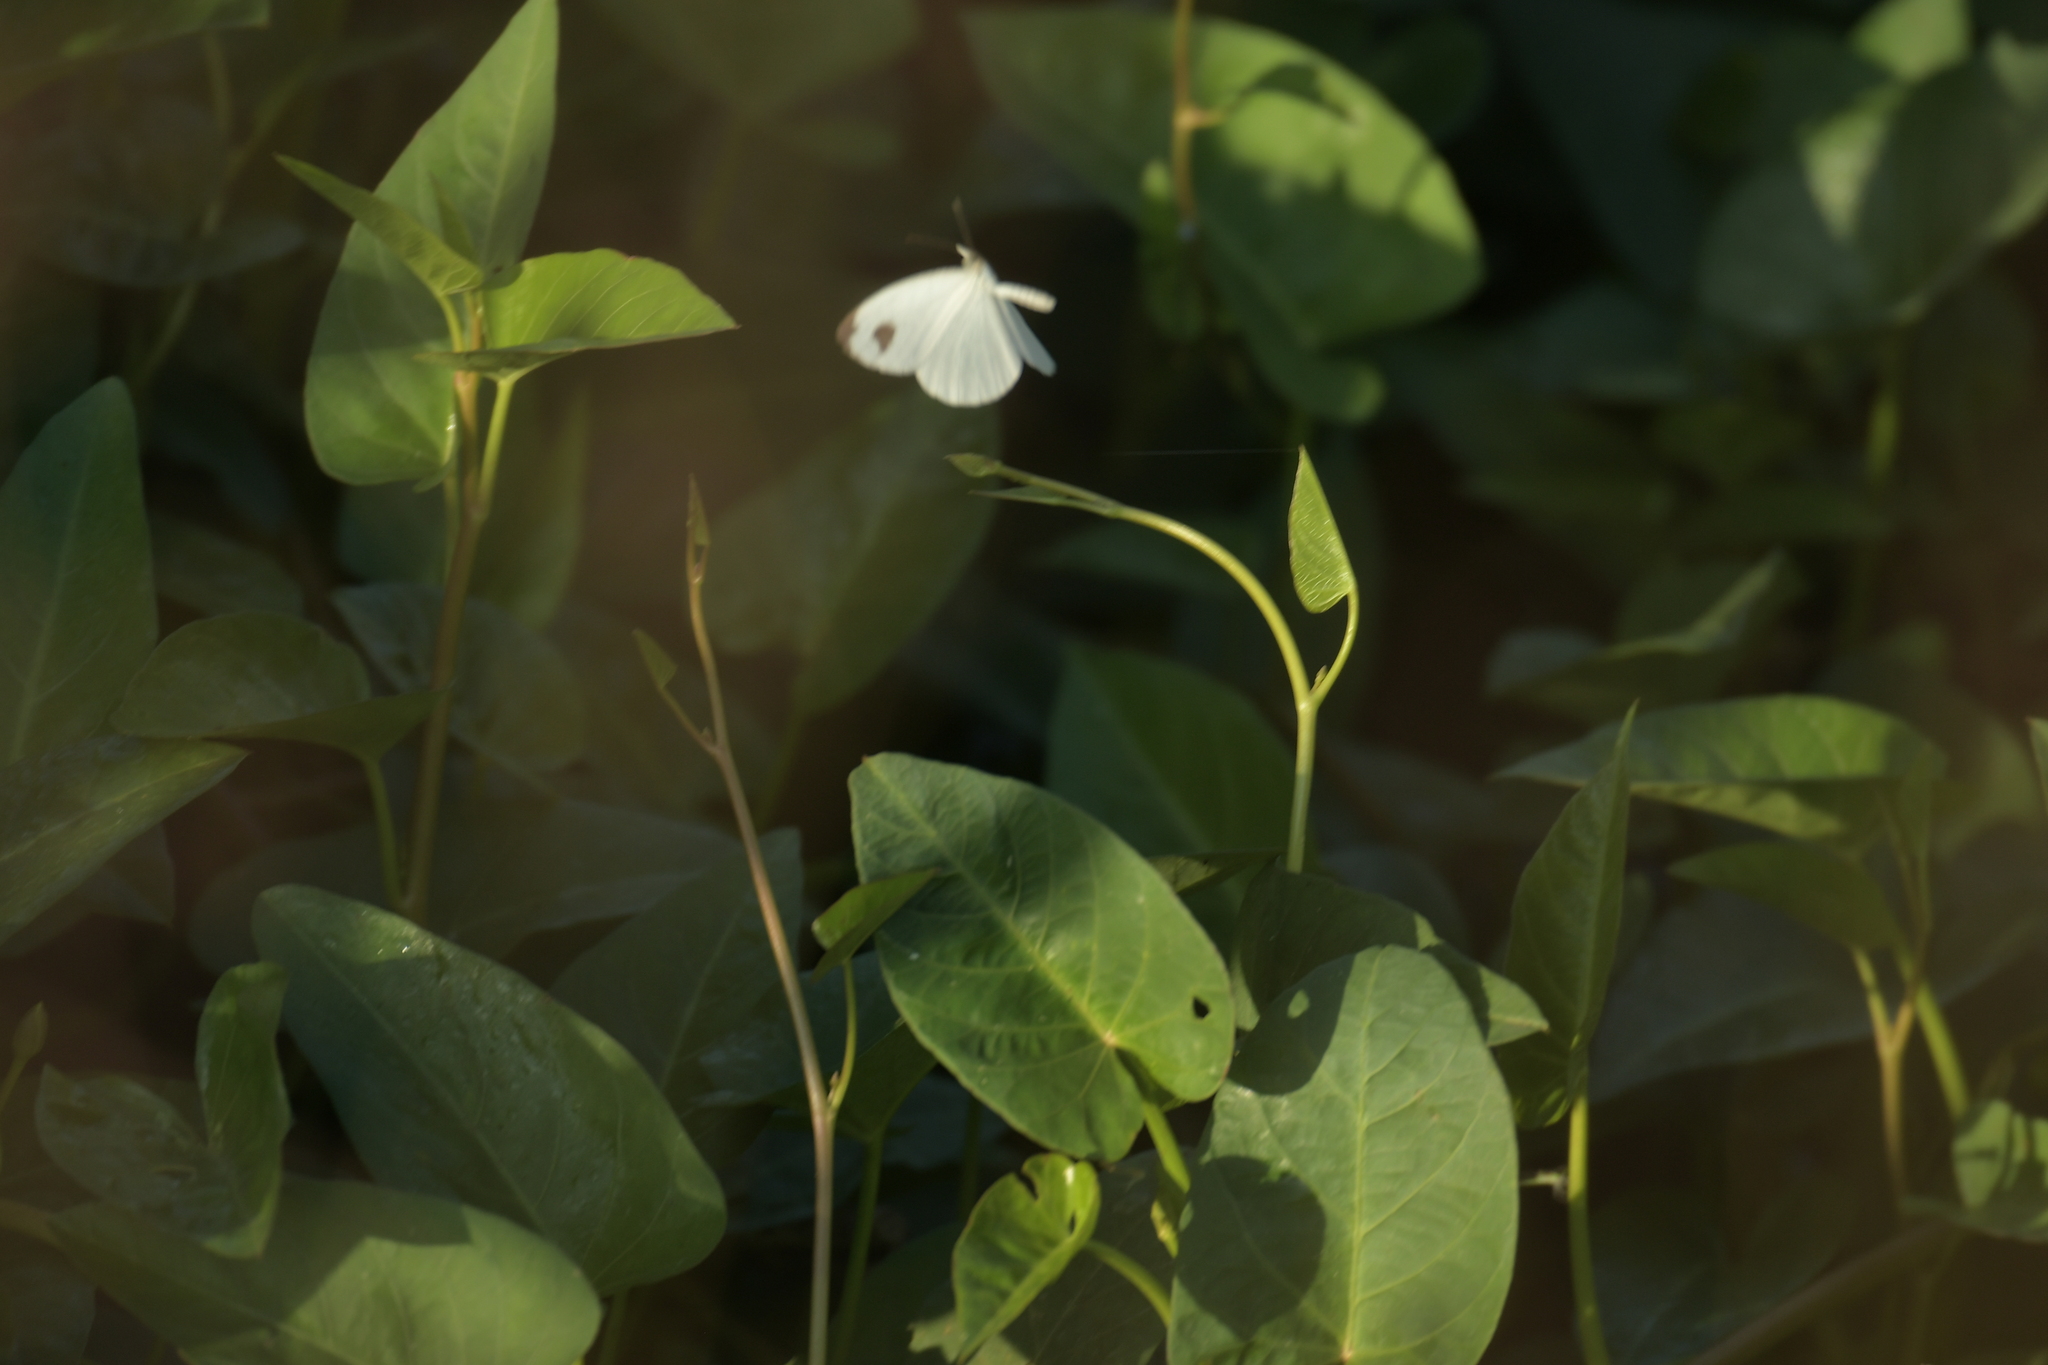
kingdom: Animalia
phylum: Arthropoda
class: Insecta
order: Lepidoptera
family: Pieridae
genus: Leptosia
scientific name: Leptosia nina
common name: Psyche
